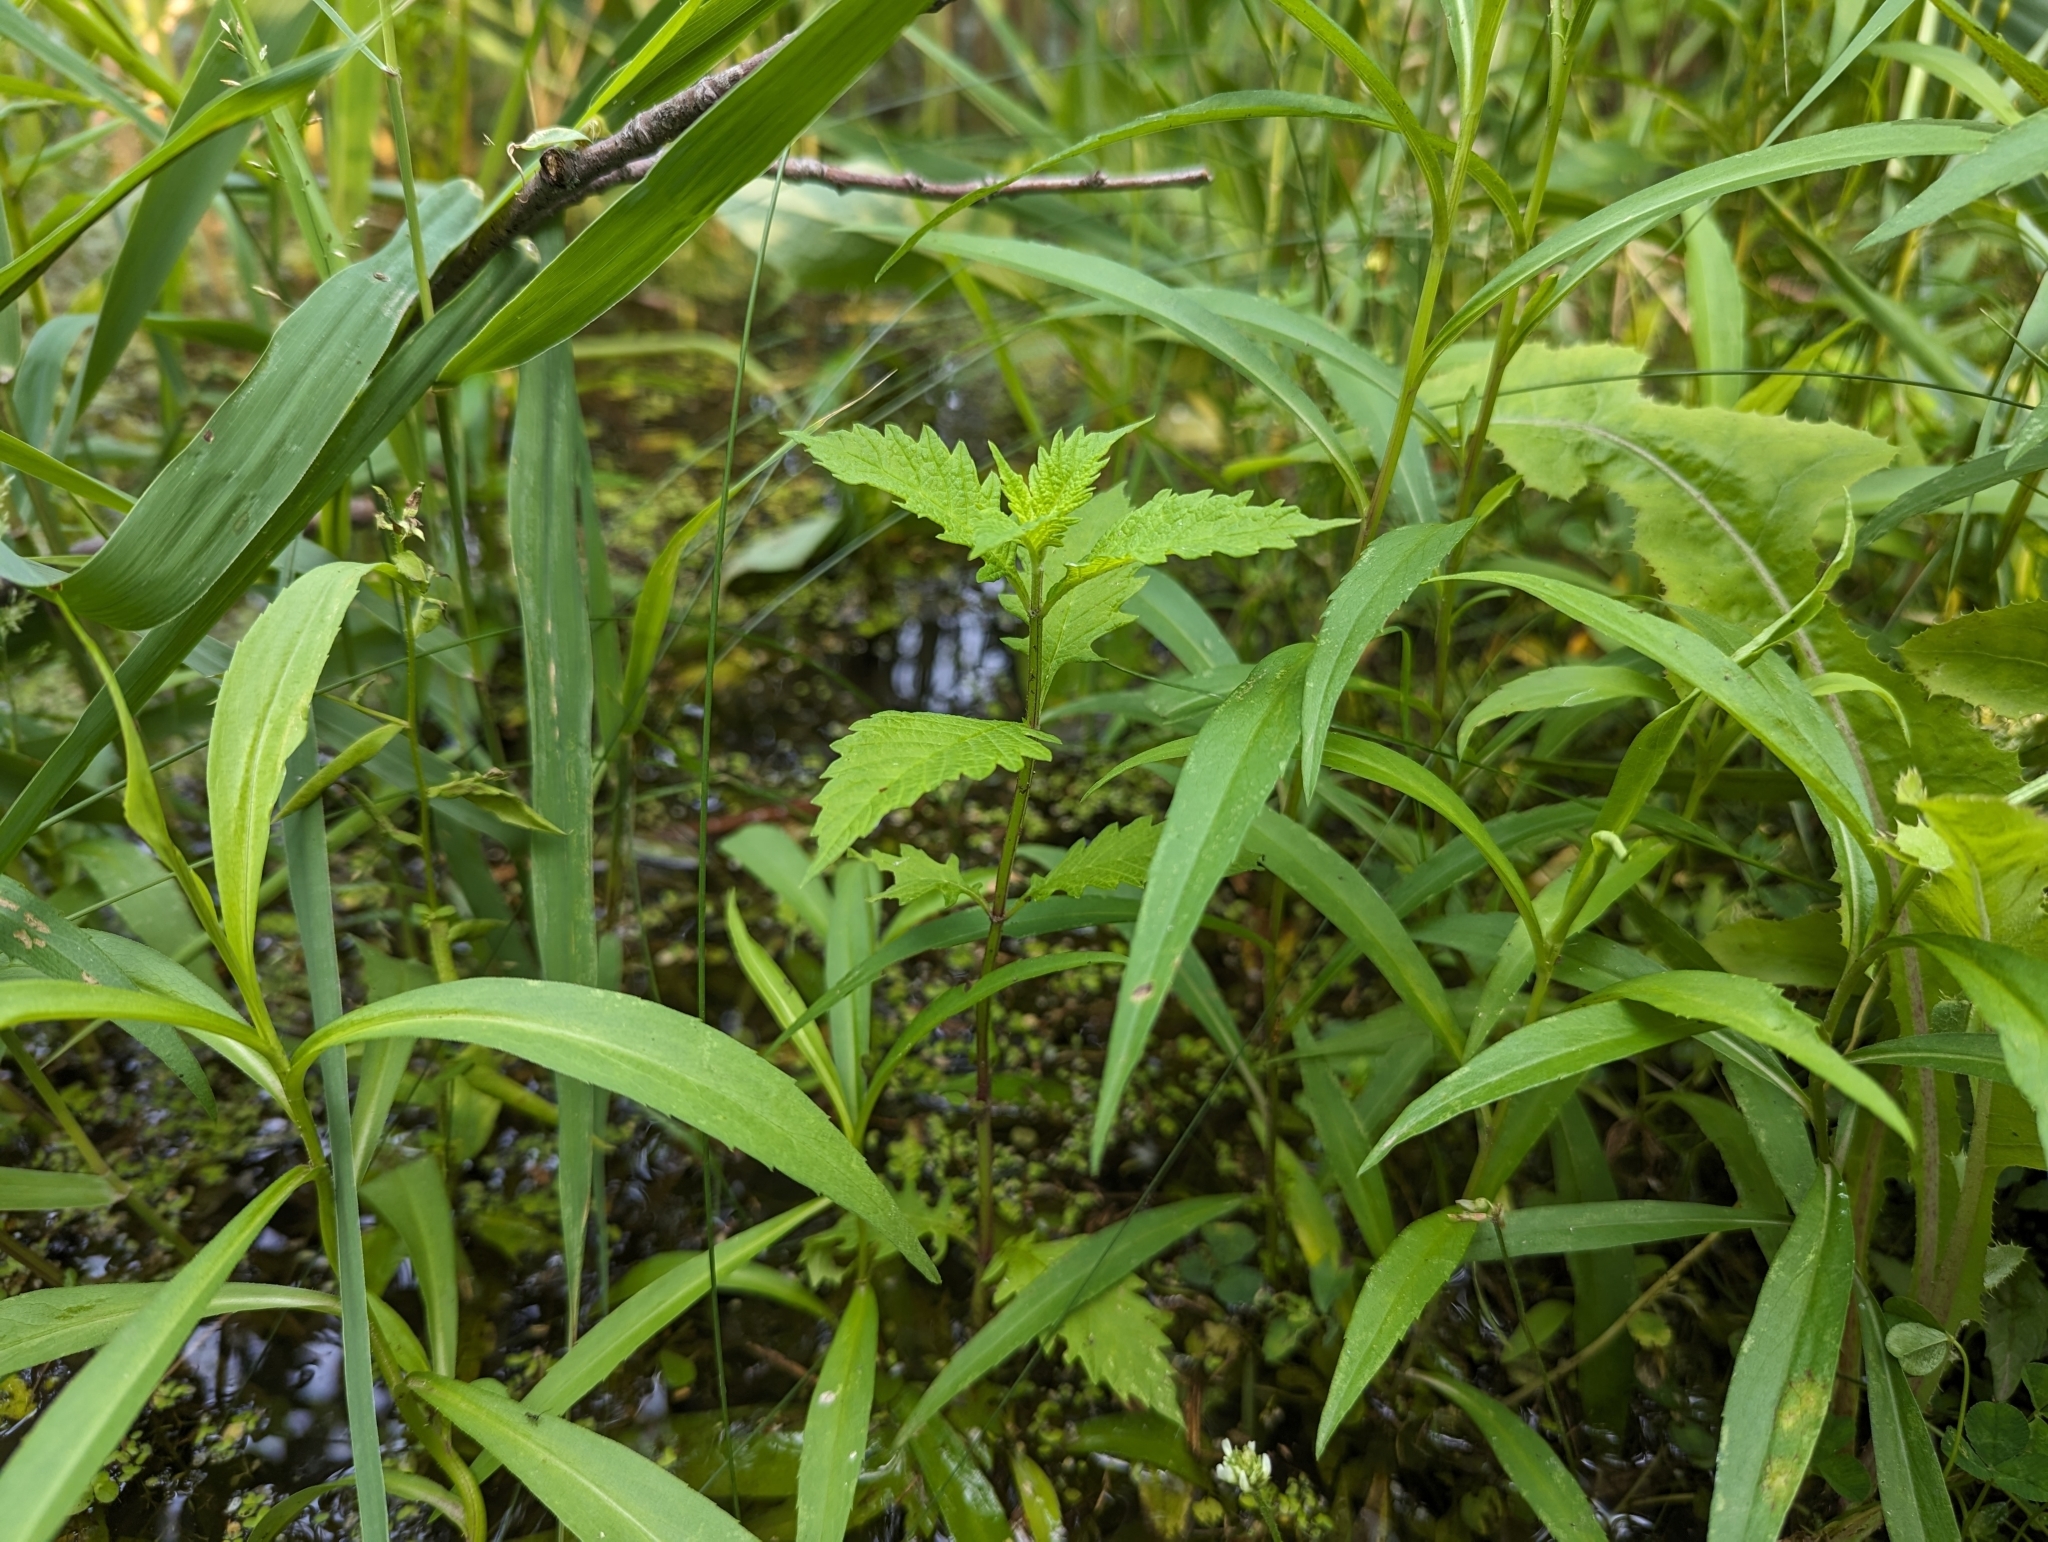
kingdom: Plantae
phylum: Tracheophyta
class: Magnoliopsida
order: Lamiales
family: Lamiaceae
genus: Lycopus
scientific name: Lycopus europaeus
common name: European bugleweed
